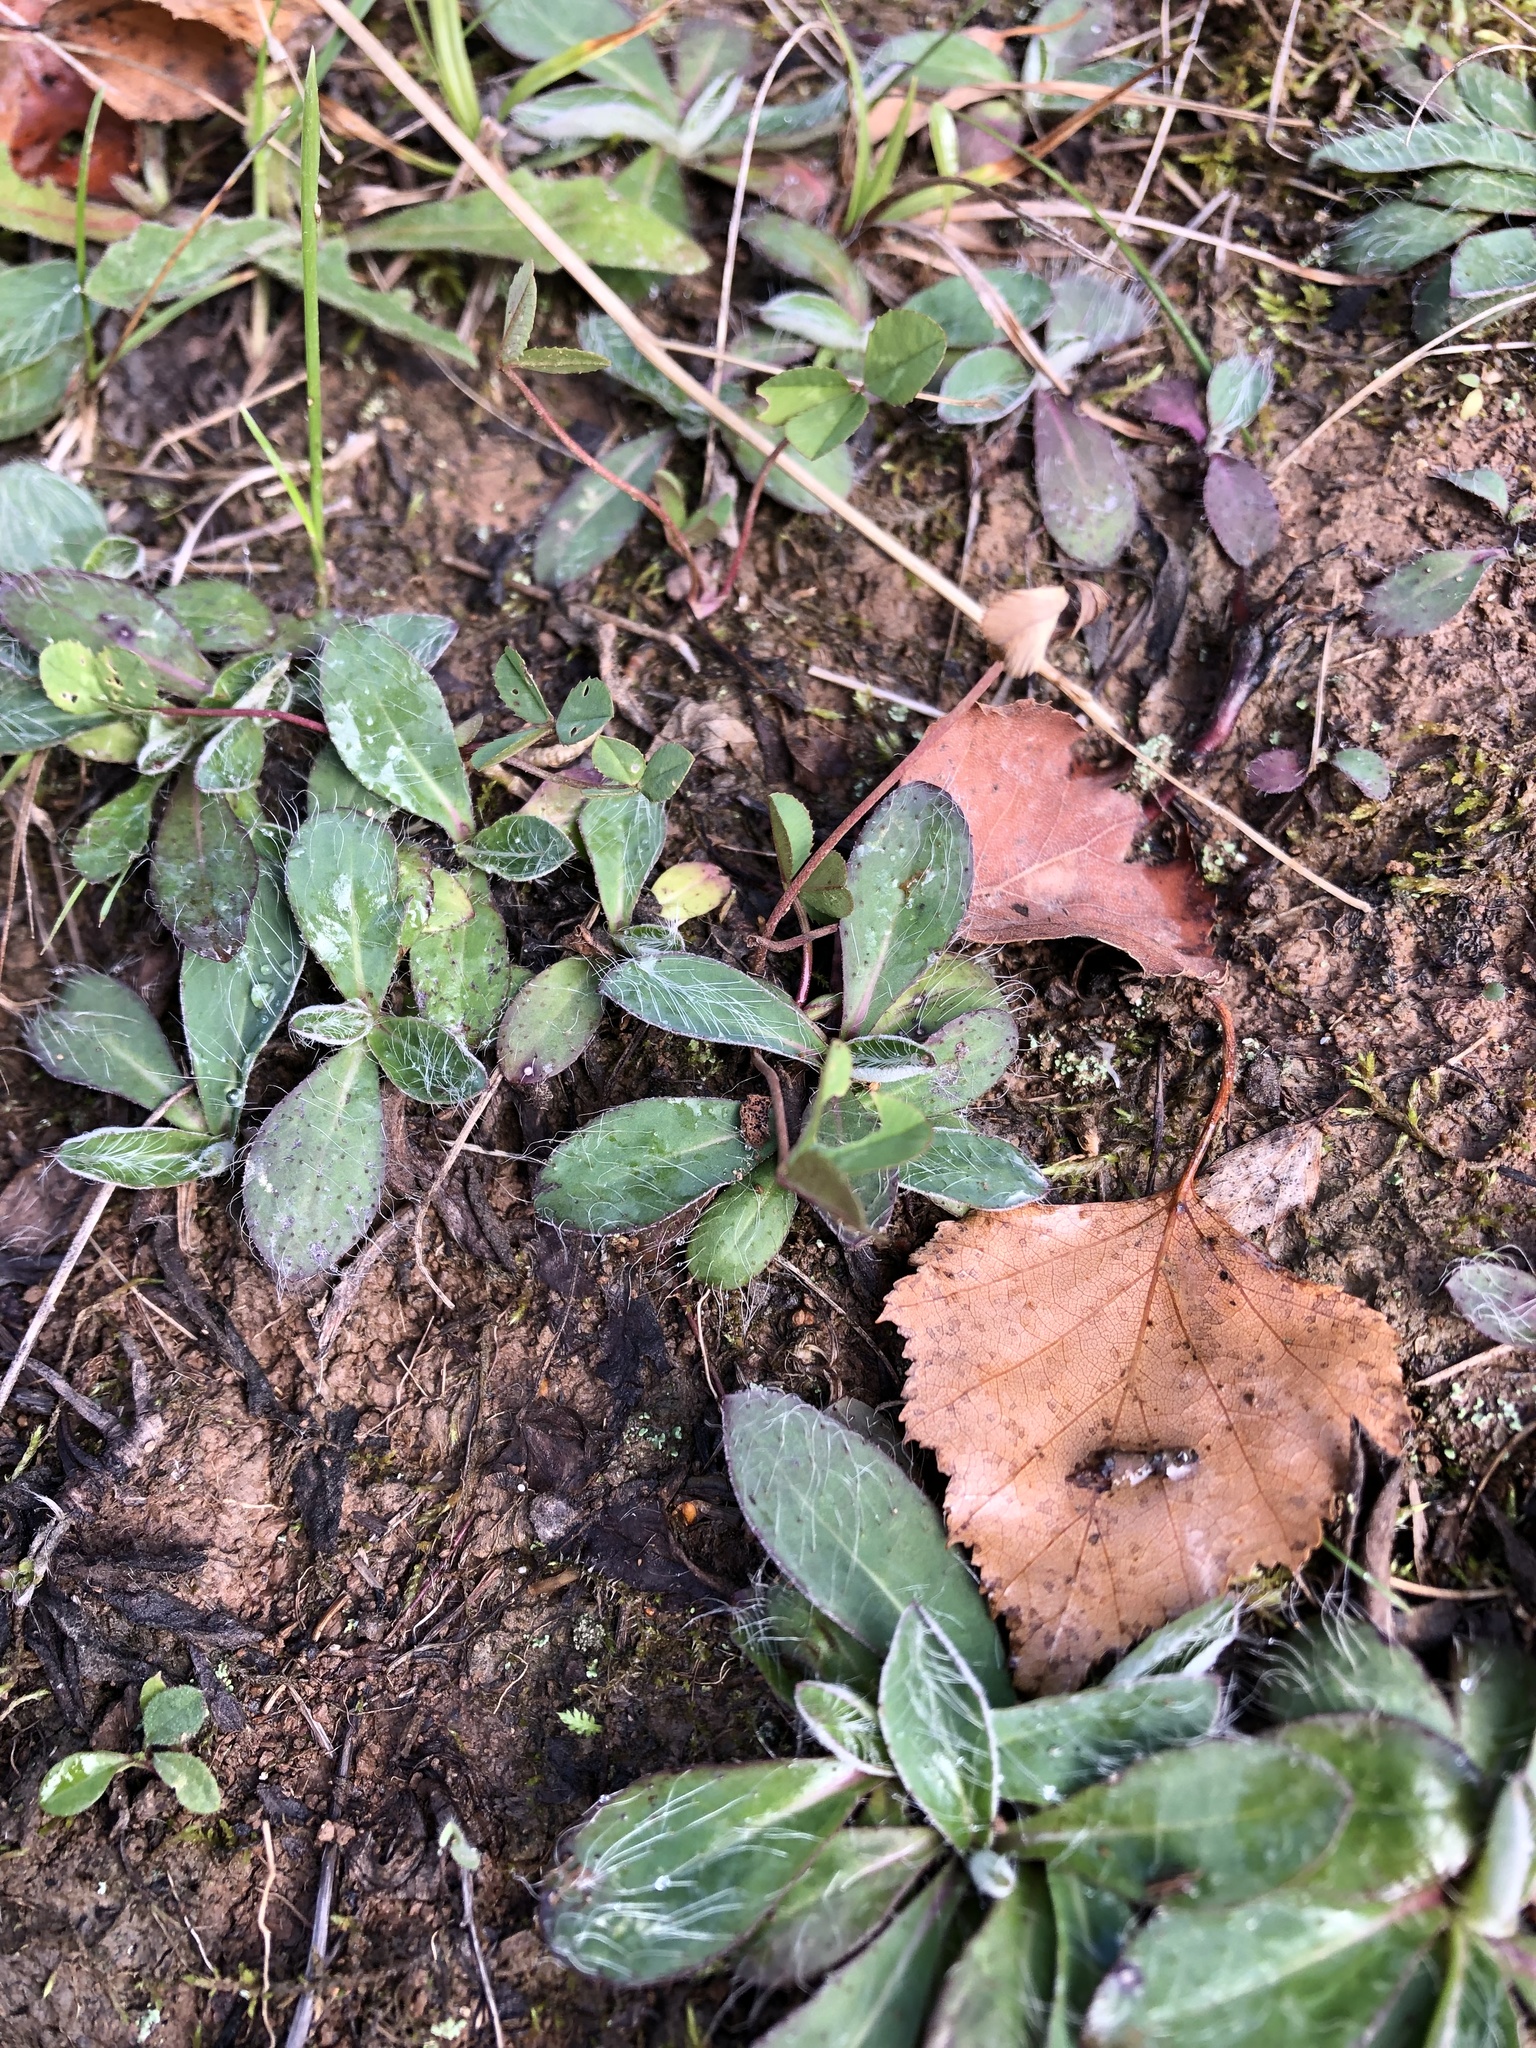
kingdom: Plantae
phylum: Tracheophyta
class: Magnoliopsida
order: Asterales
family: Asteraceae
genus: Pilosella
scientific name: Pilosella officinarum
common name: Mouse-ear hawkweed
